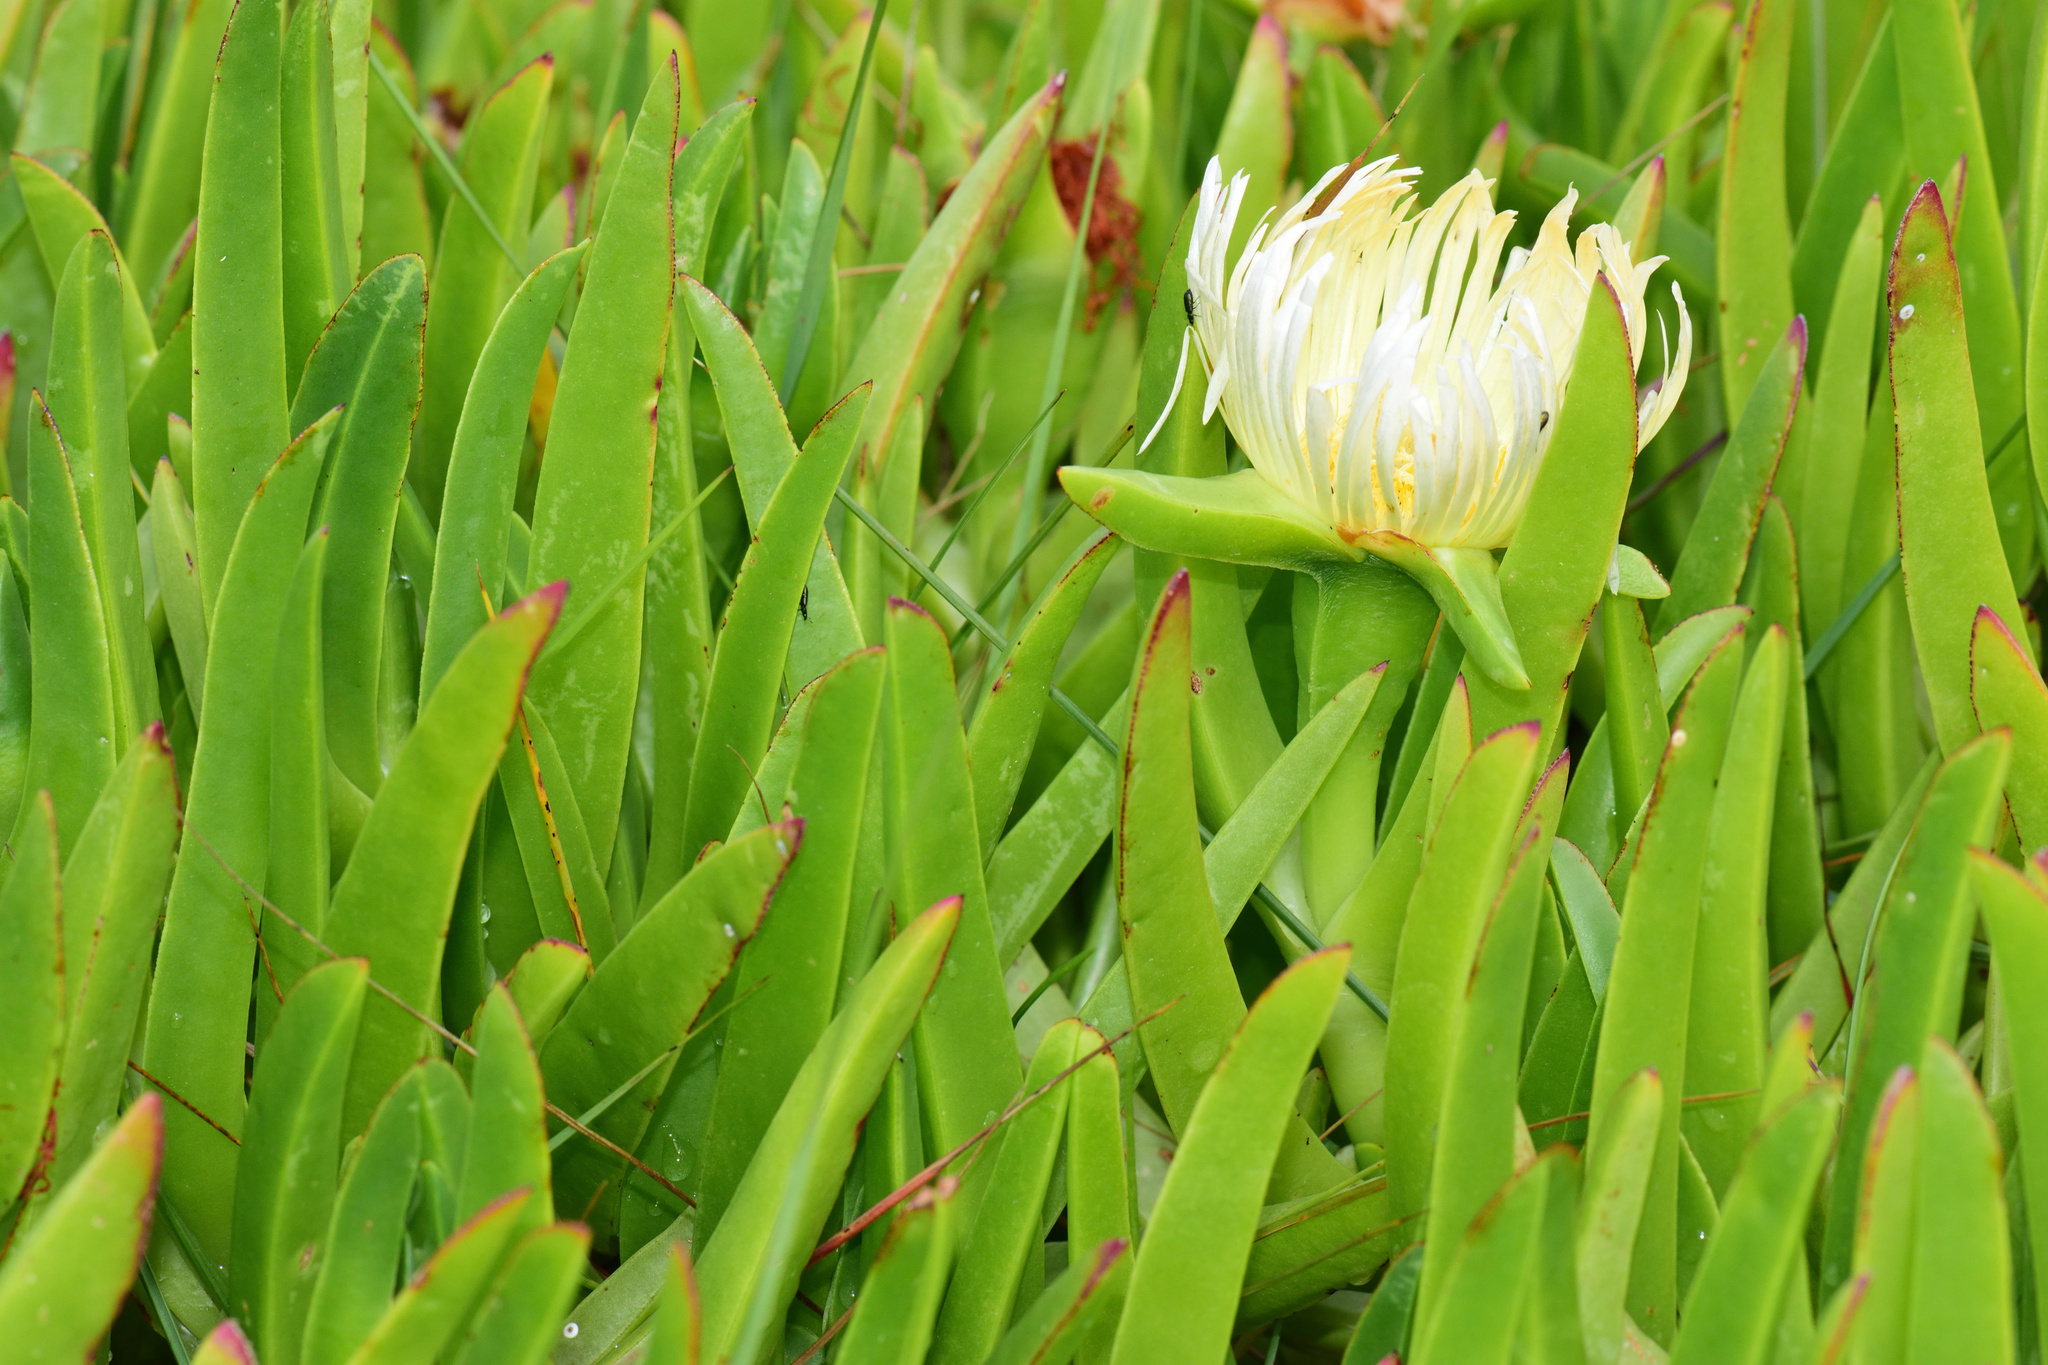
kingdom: Plantae
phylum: Tracheophyta
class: Magnoliopsida
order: Caryophyllales
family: Aizoaceae
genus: Carpobrotus
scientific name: Carpobrotus edulis
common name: Hottentot-fig
